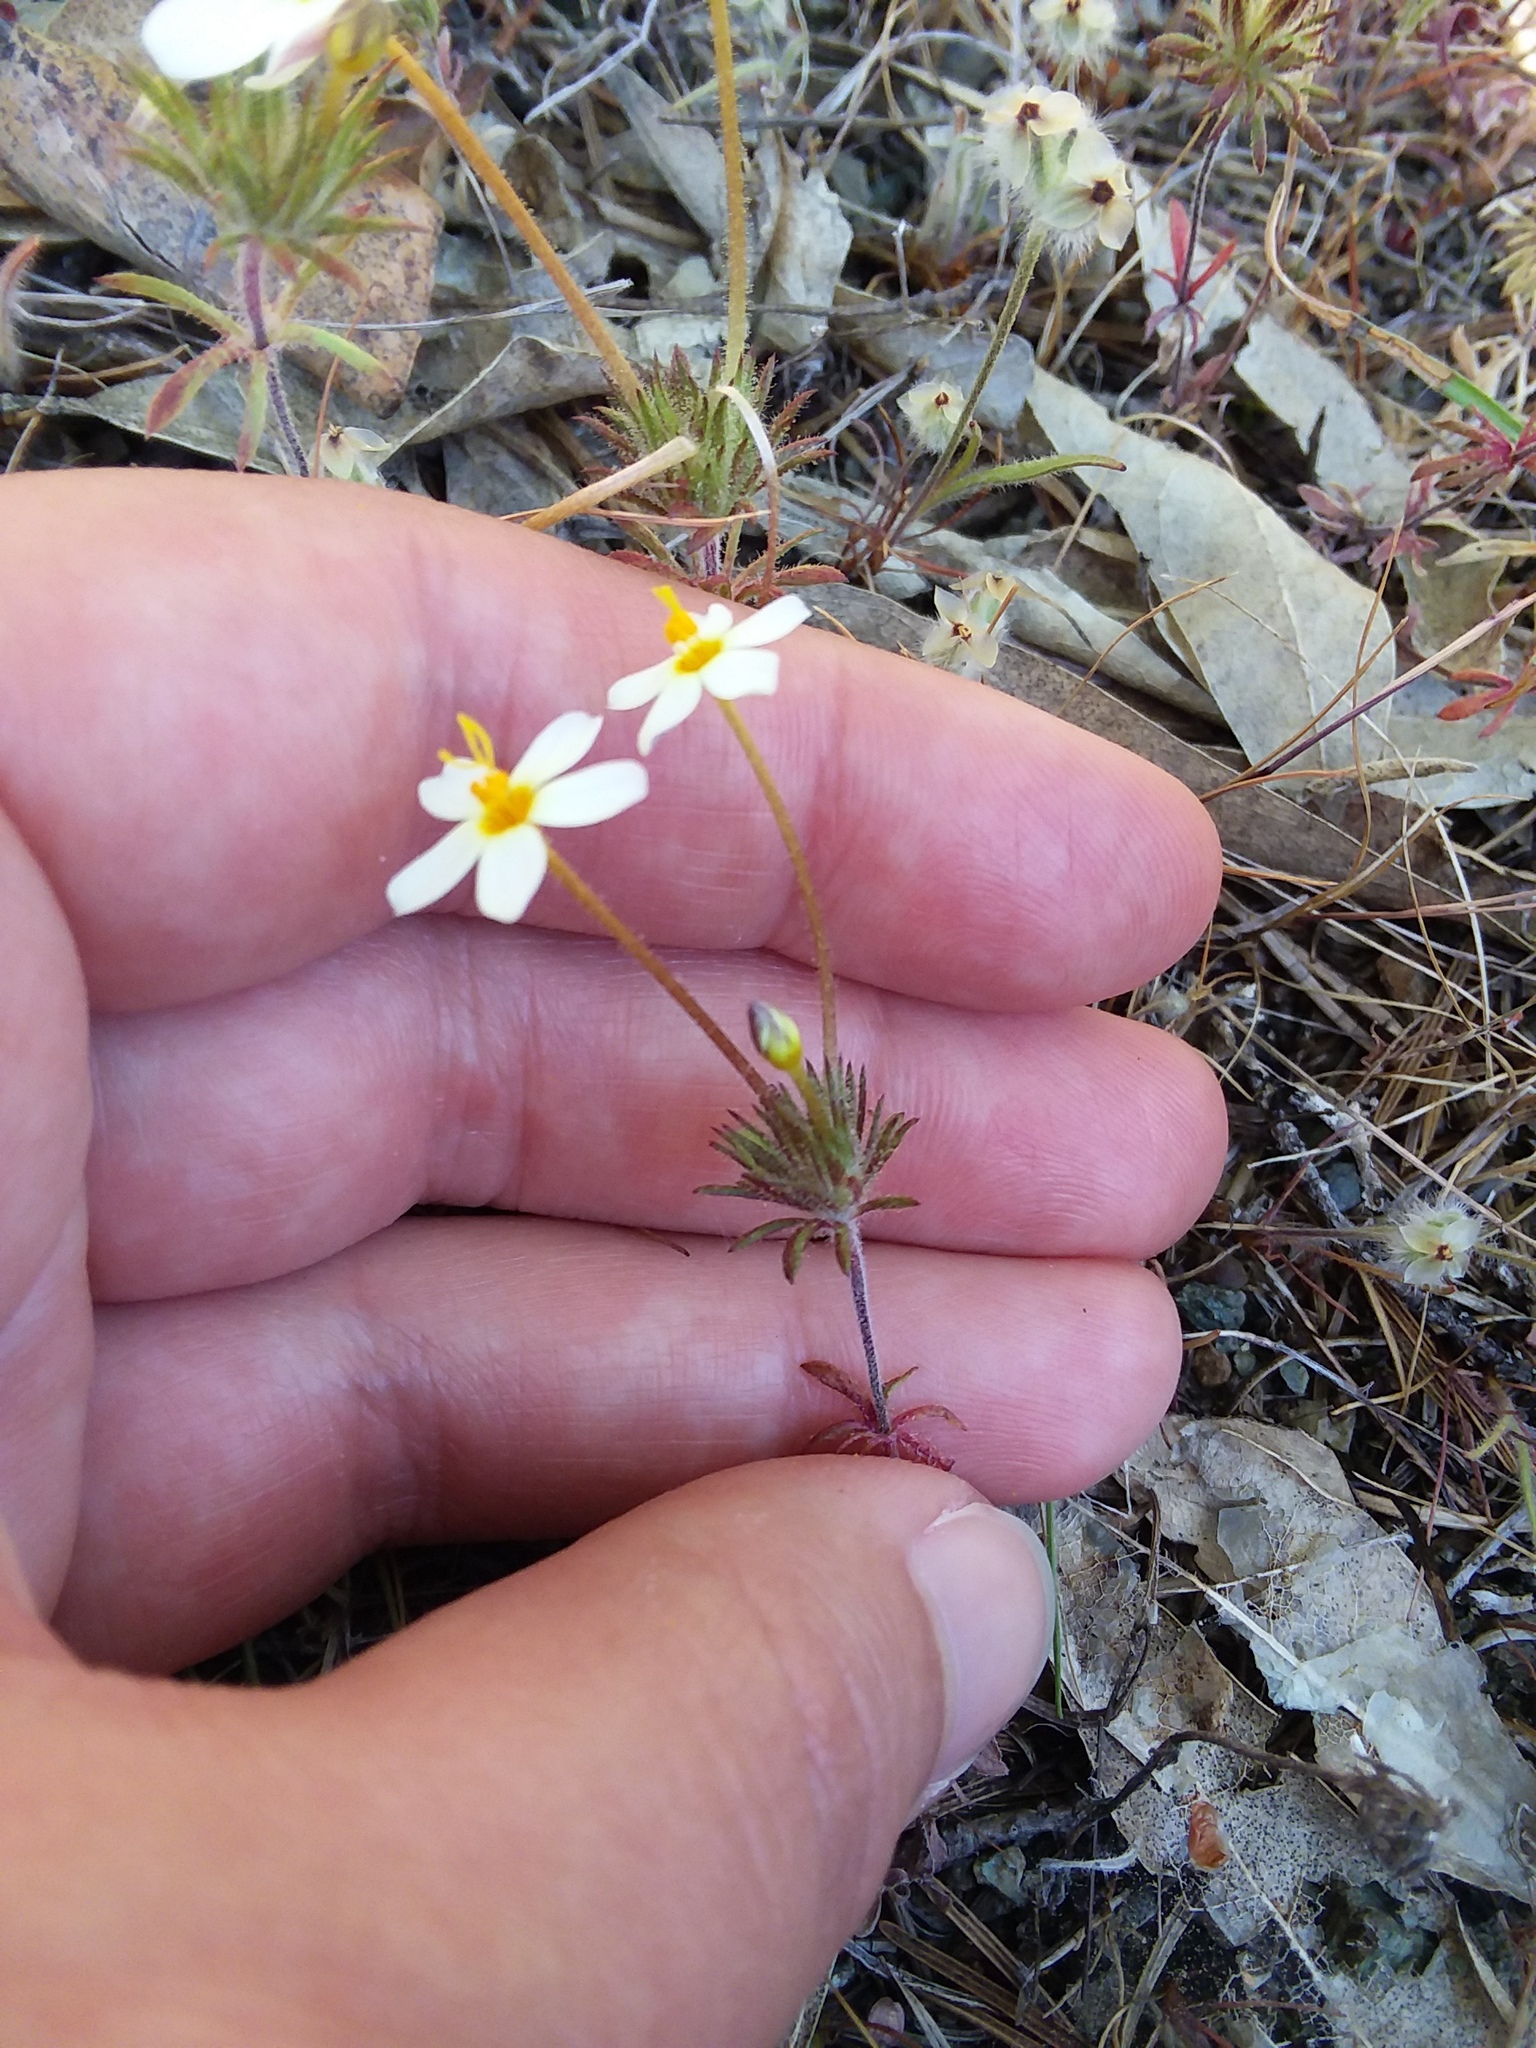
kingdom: Plantae
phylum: Tracheophyta
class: Magnoliopsida
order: Ericales
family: Polemoniaceae
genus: Leptosiphon
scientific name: Leptosiphon parviflorus
